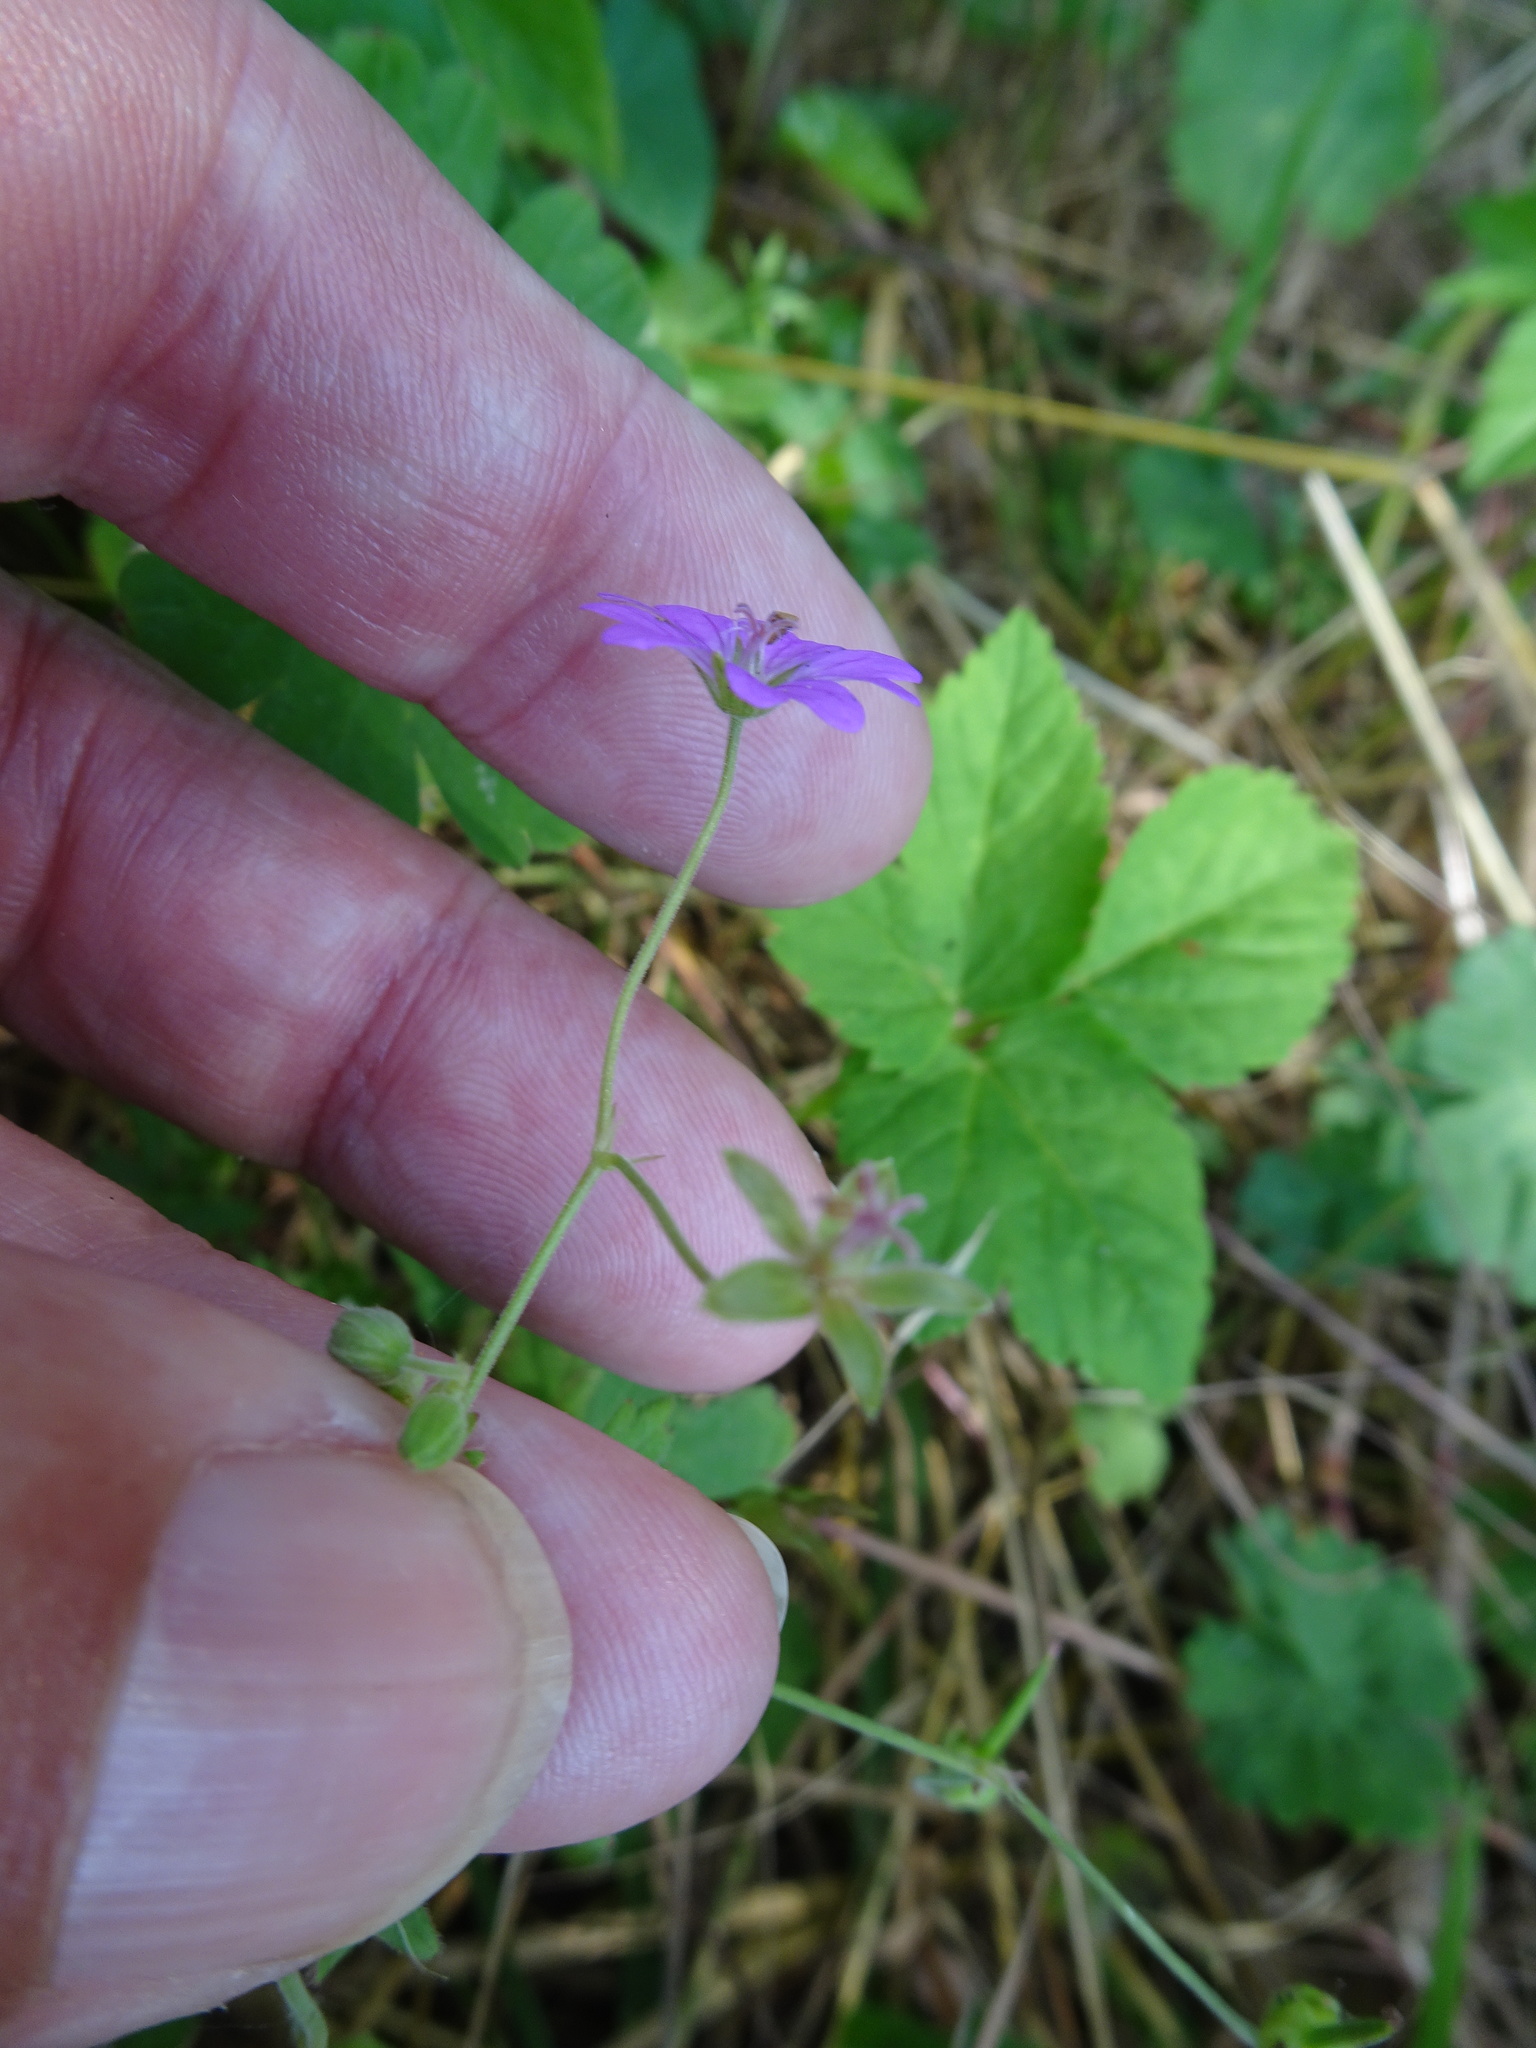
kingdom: Plantae
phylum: Tracheophyta
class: Magnoliopsida
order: Geraniales
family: Geraniaceae
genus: Geranium
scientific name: Geranium pyrenaicum
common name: Hedgerow crane's-bill
